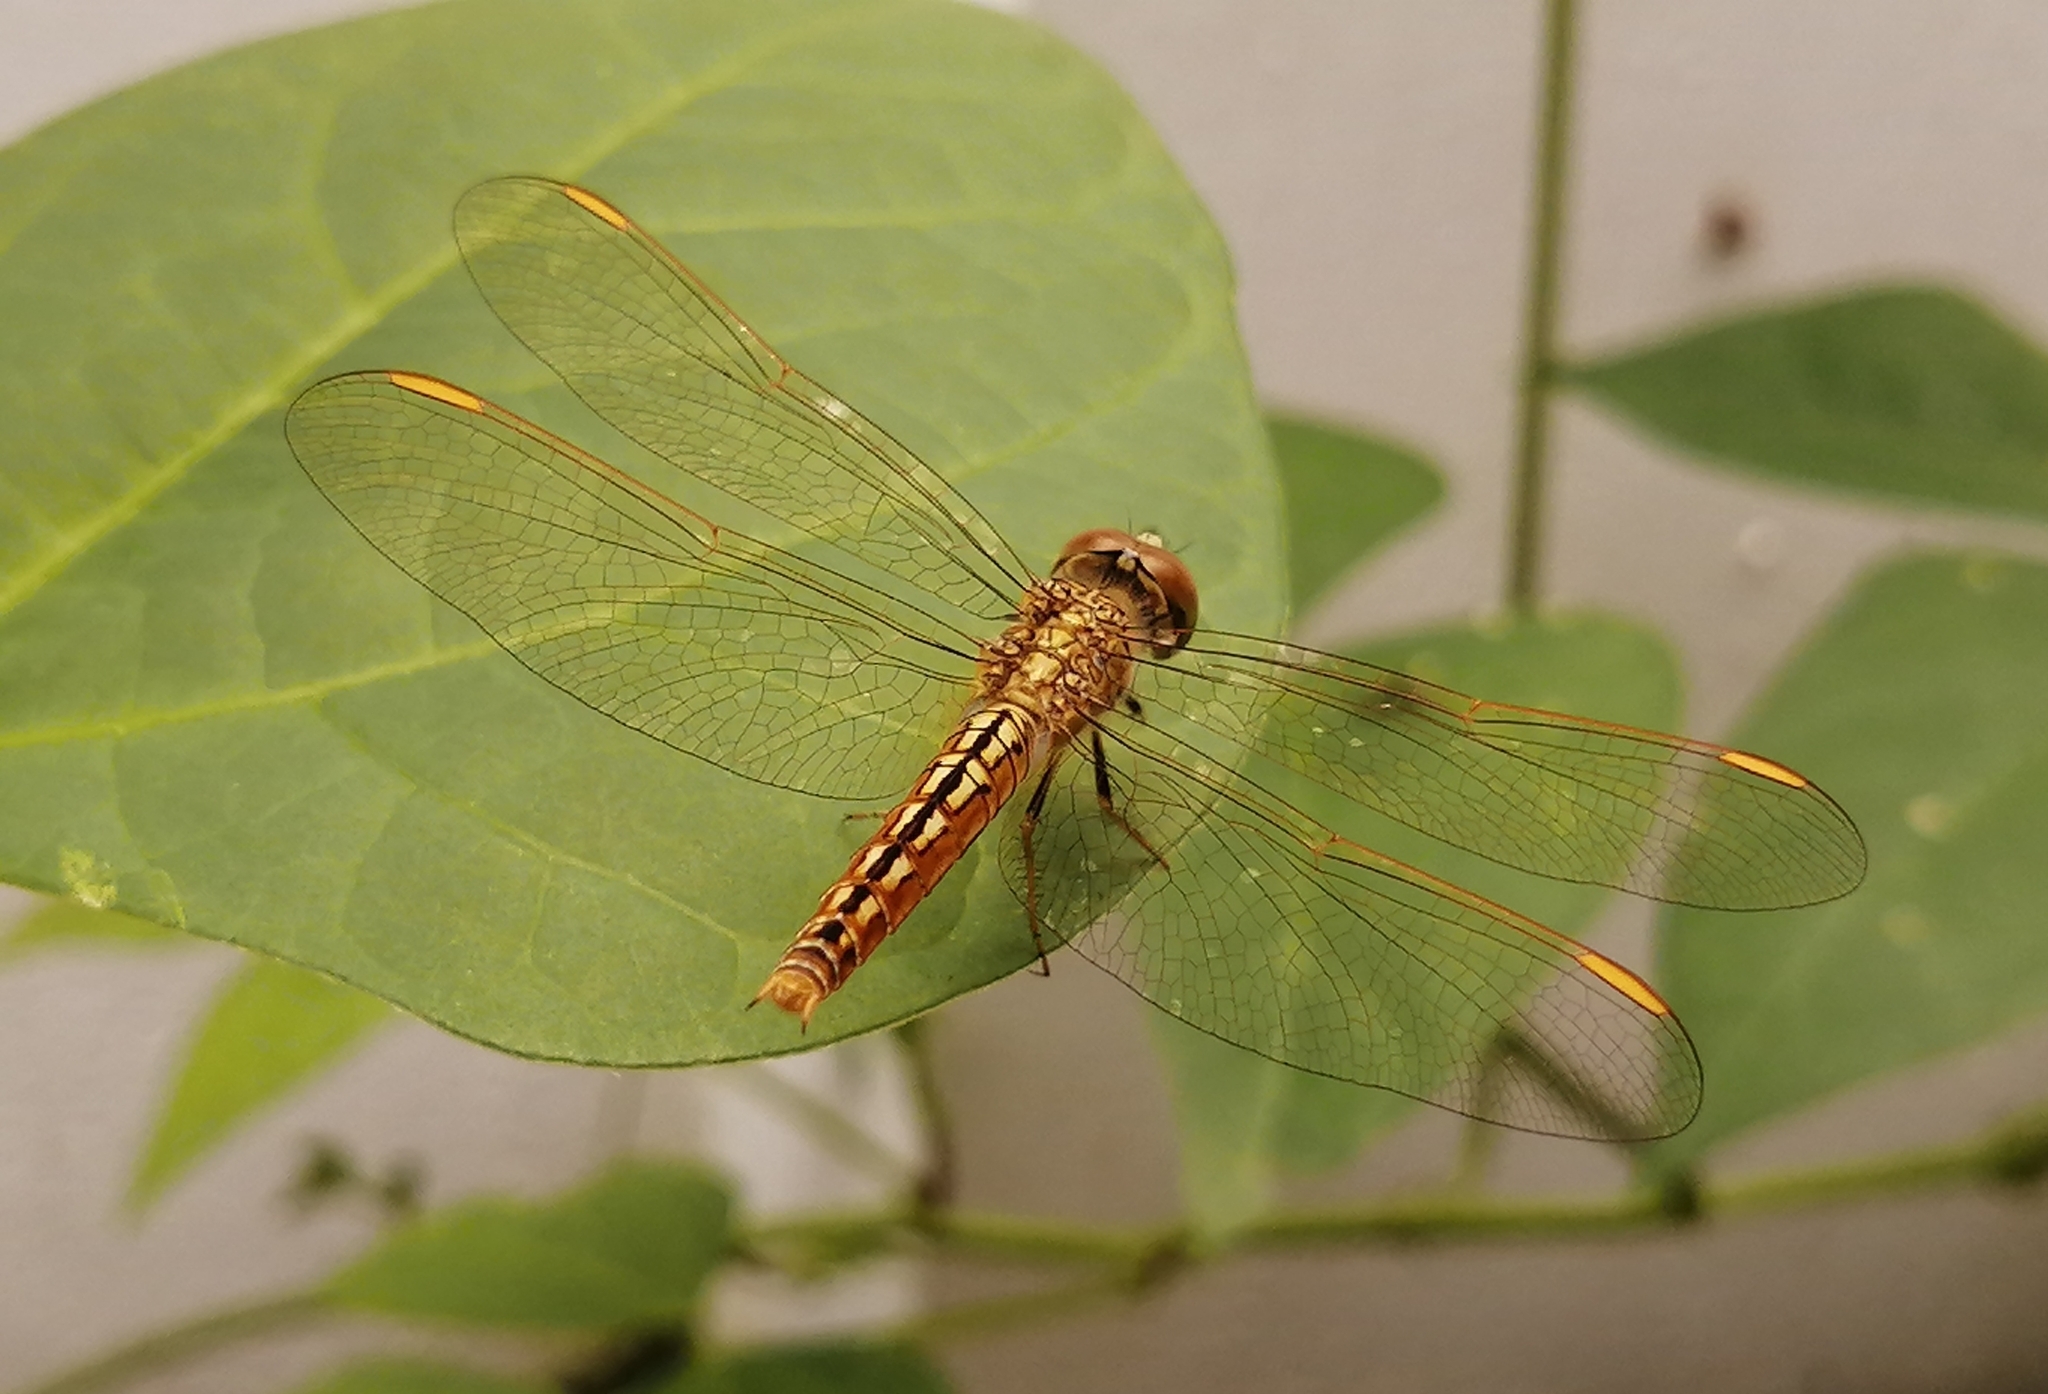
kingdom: Animalia
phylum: Arthropoda
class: Insecta
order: Odonata
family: Libellulidae
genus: Brachythemis
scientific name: Brachythemis contaminata
